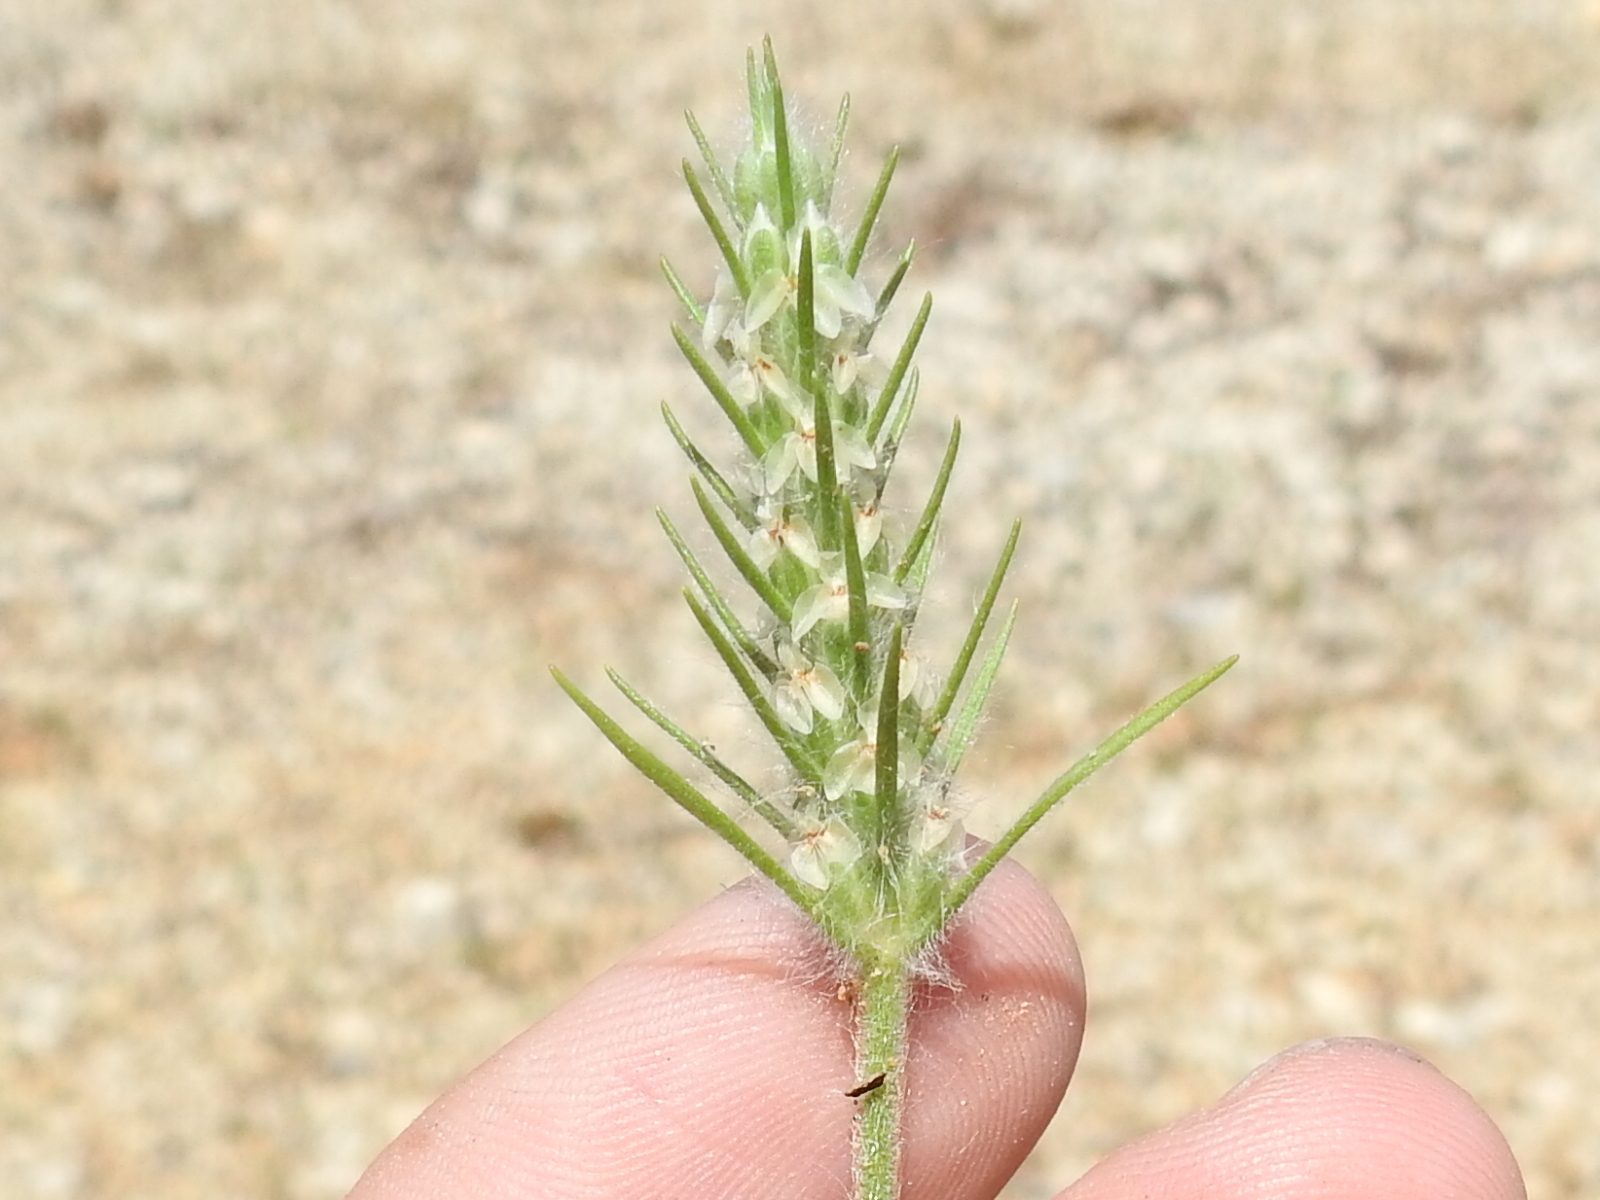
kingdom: Plantae
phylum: Tracheophyta
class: Magnoliopsida
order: Lamiales
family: Plantaginaceae
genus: Plantago
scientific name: Plantago aristata
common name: Bracted plantain
